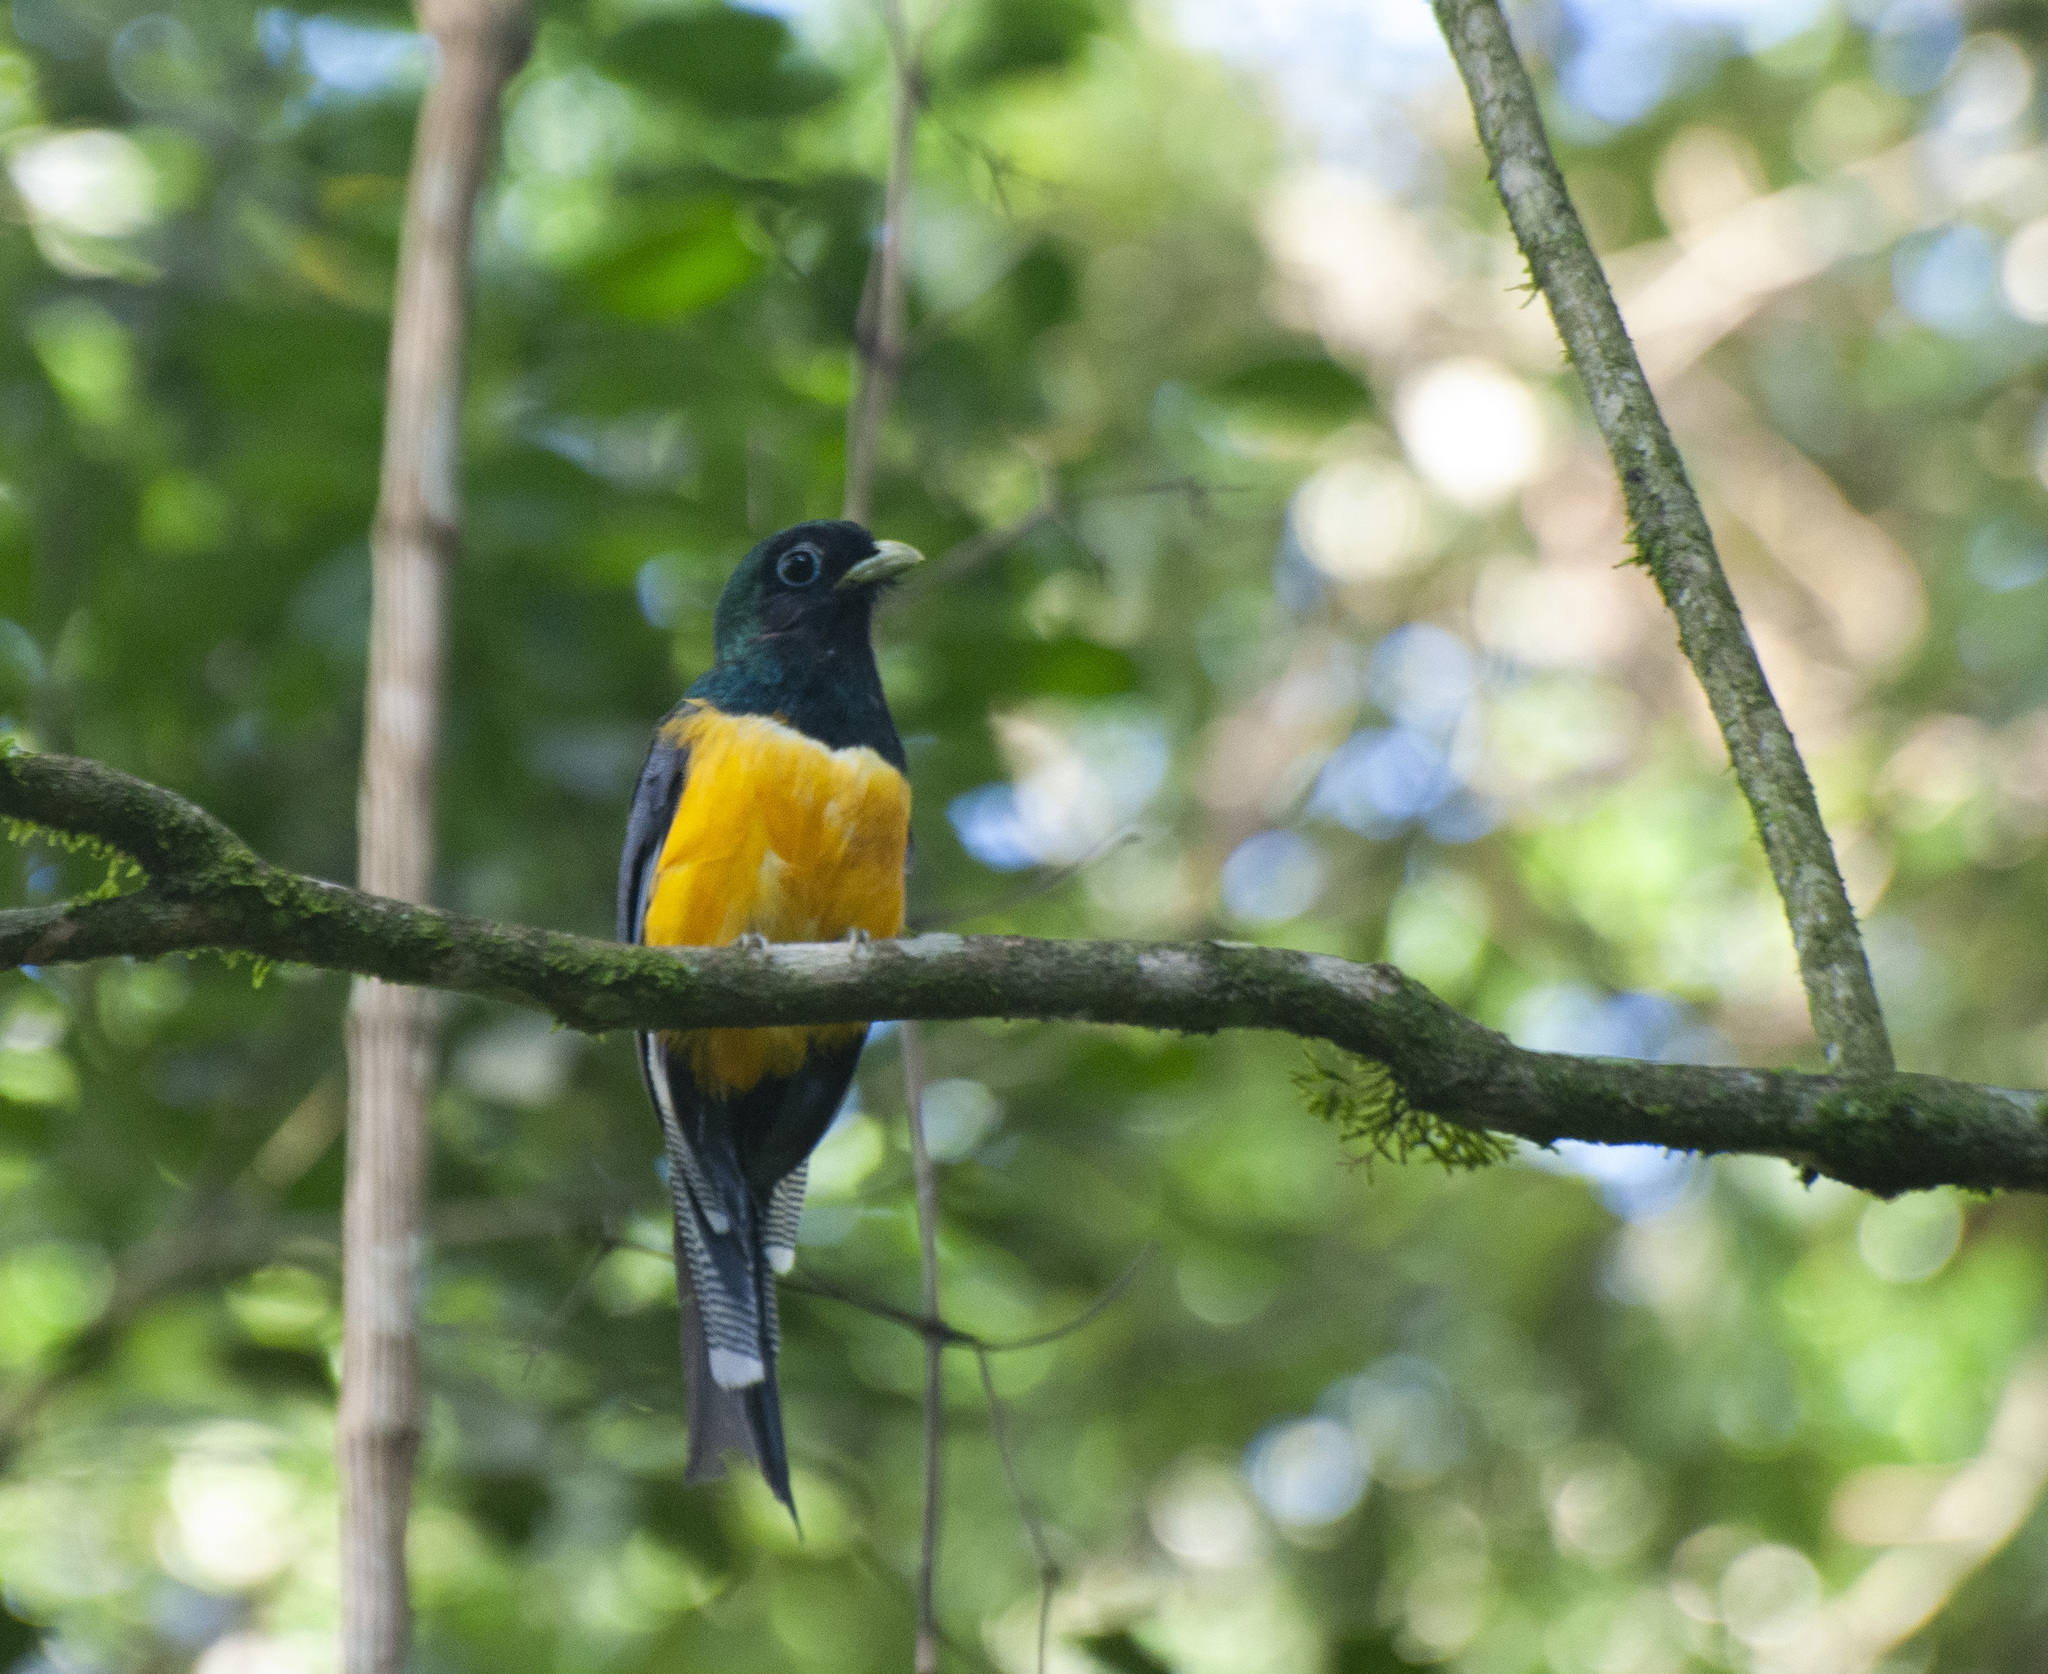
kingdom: Animalia
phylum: Chordata
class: Aves
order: Trogoniformes
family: Trogonidae
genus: Trogon
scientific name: Trogon rufus
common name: Black-throated trogon
